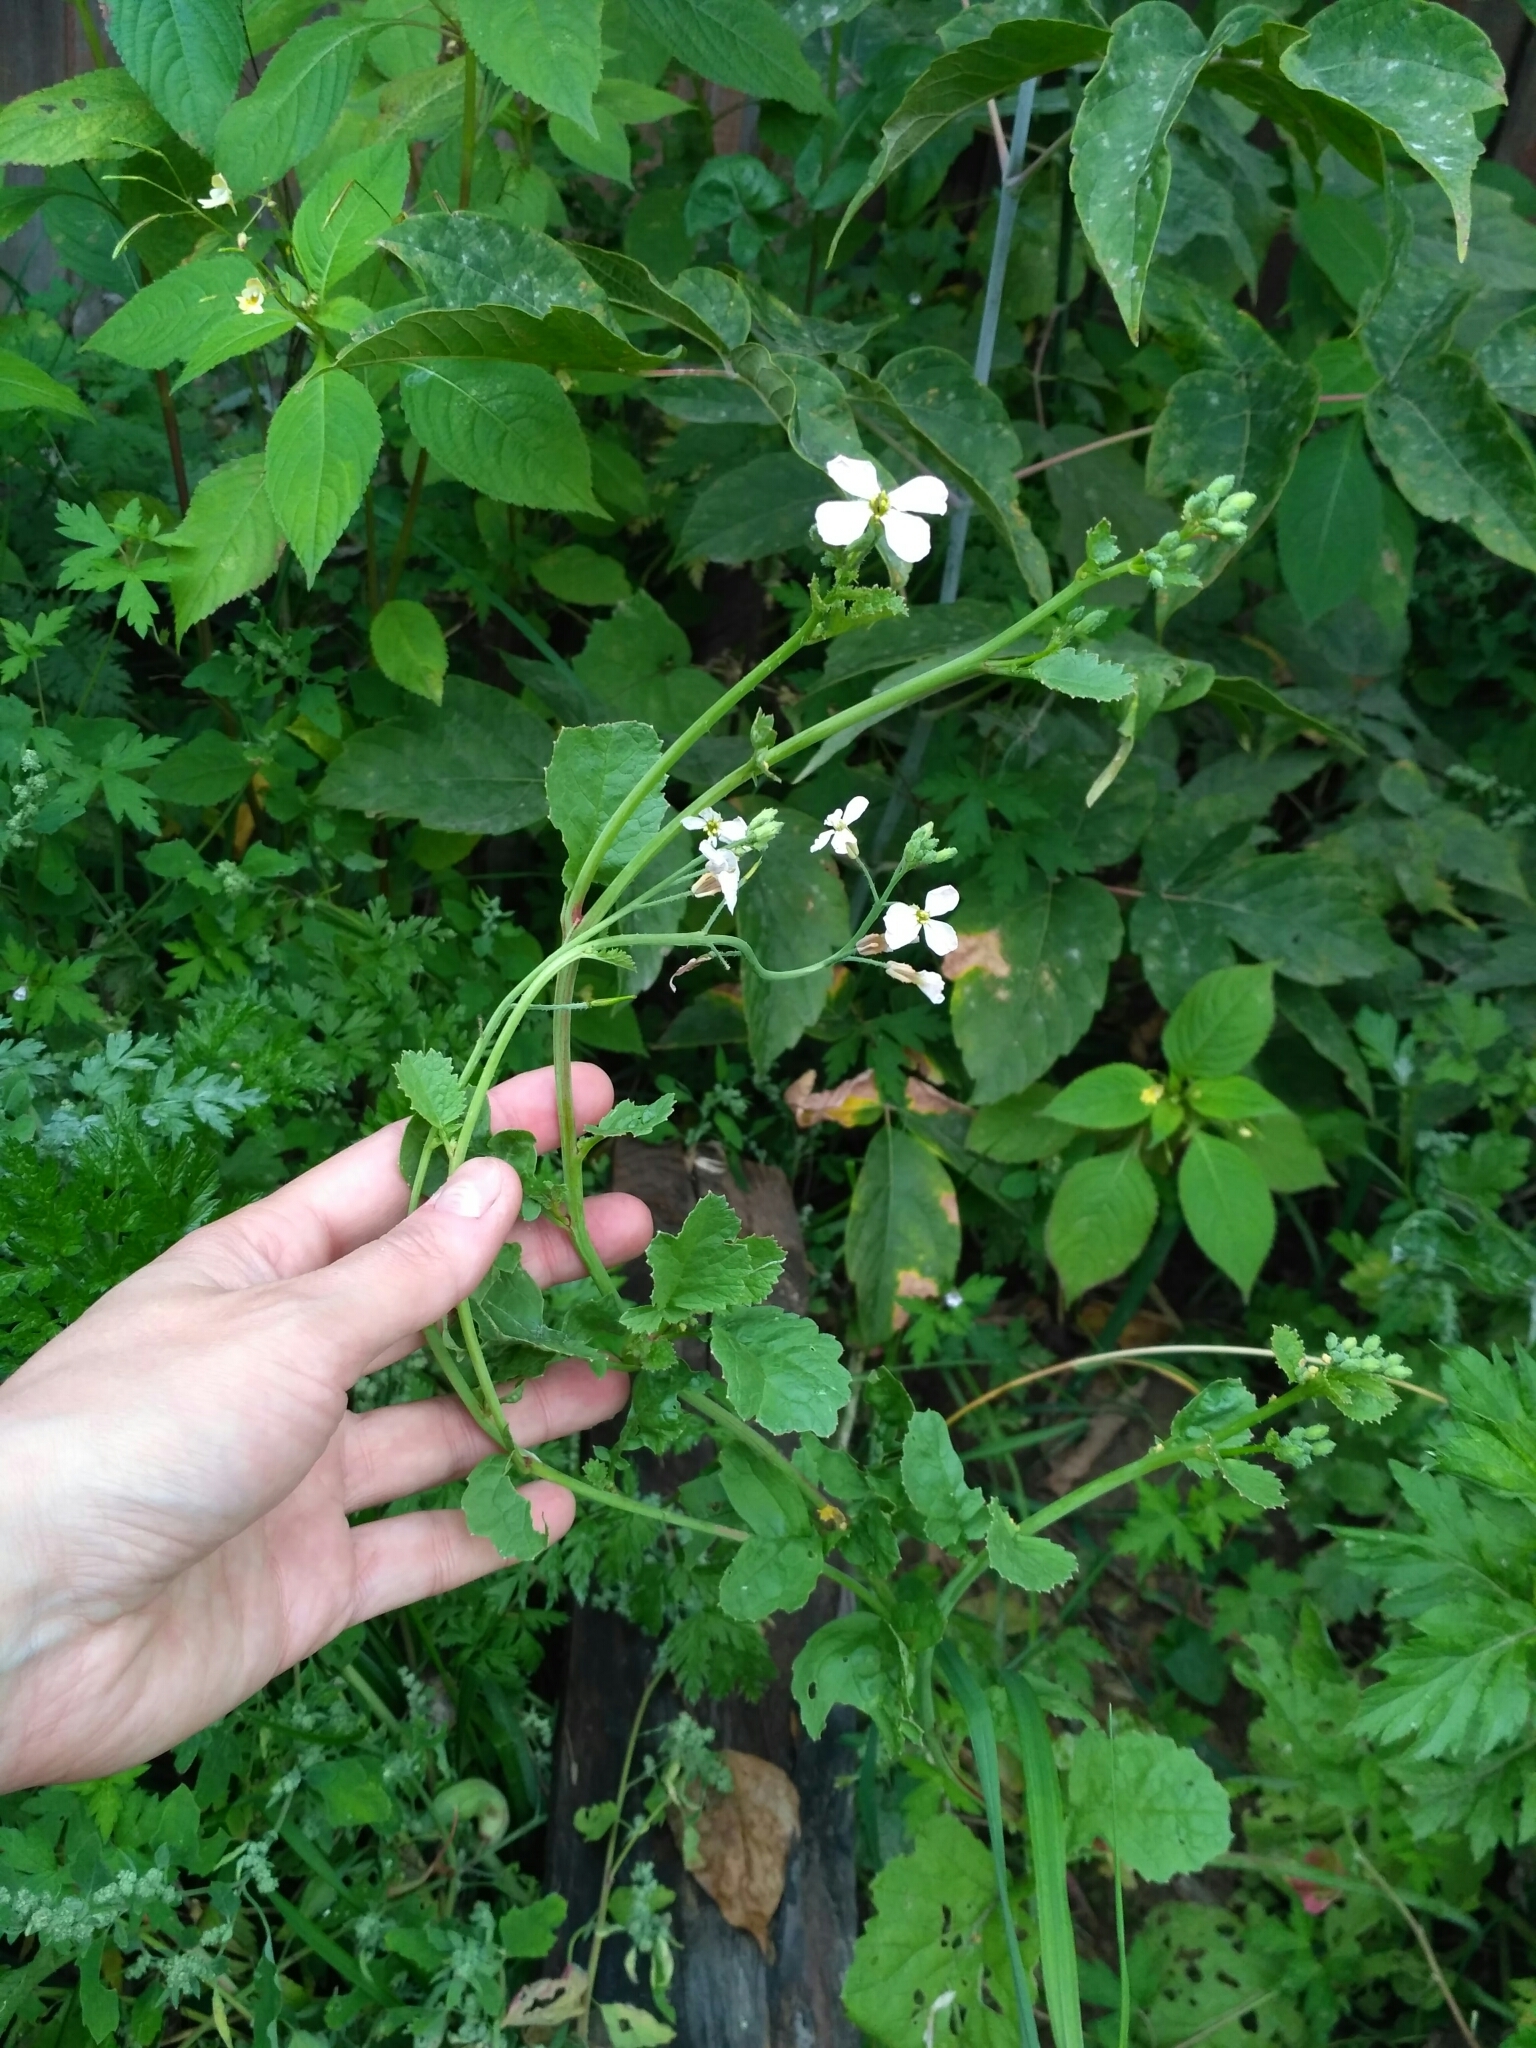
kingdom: Plantae
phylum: Tracheophyta
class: Magnoliopsida
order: Brassicales
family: Brassicaceae
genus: Raphanus
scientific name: Raphanus raphanistrum
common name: Wild radish
